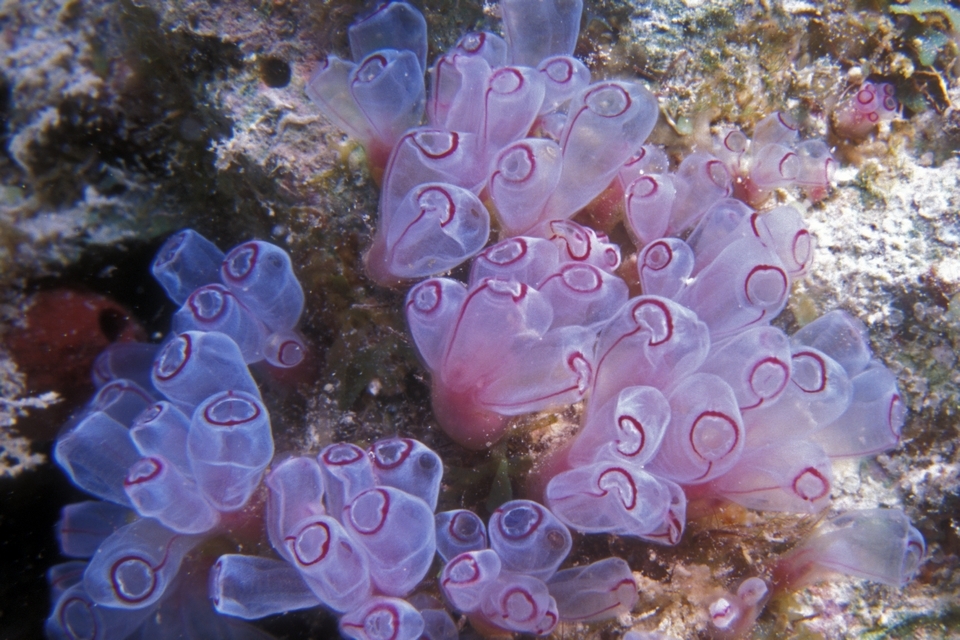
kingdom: Animalia
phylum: Chordata
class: Ascidiacea
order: Aplousobranchia
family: Clavelinidae
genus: Clavelina
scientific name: Clavelina picta
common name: Painted tunicate
